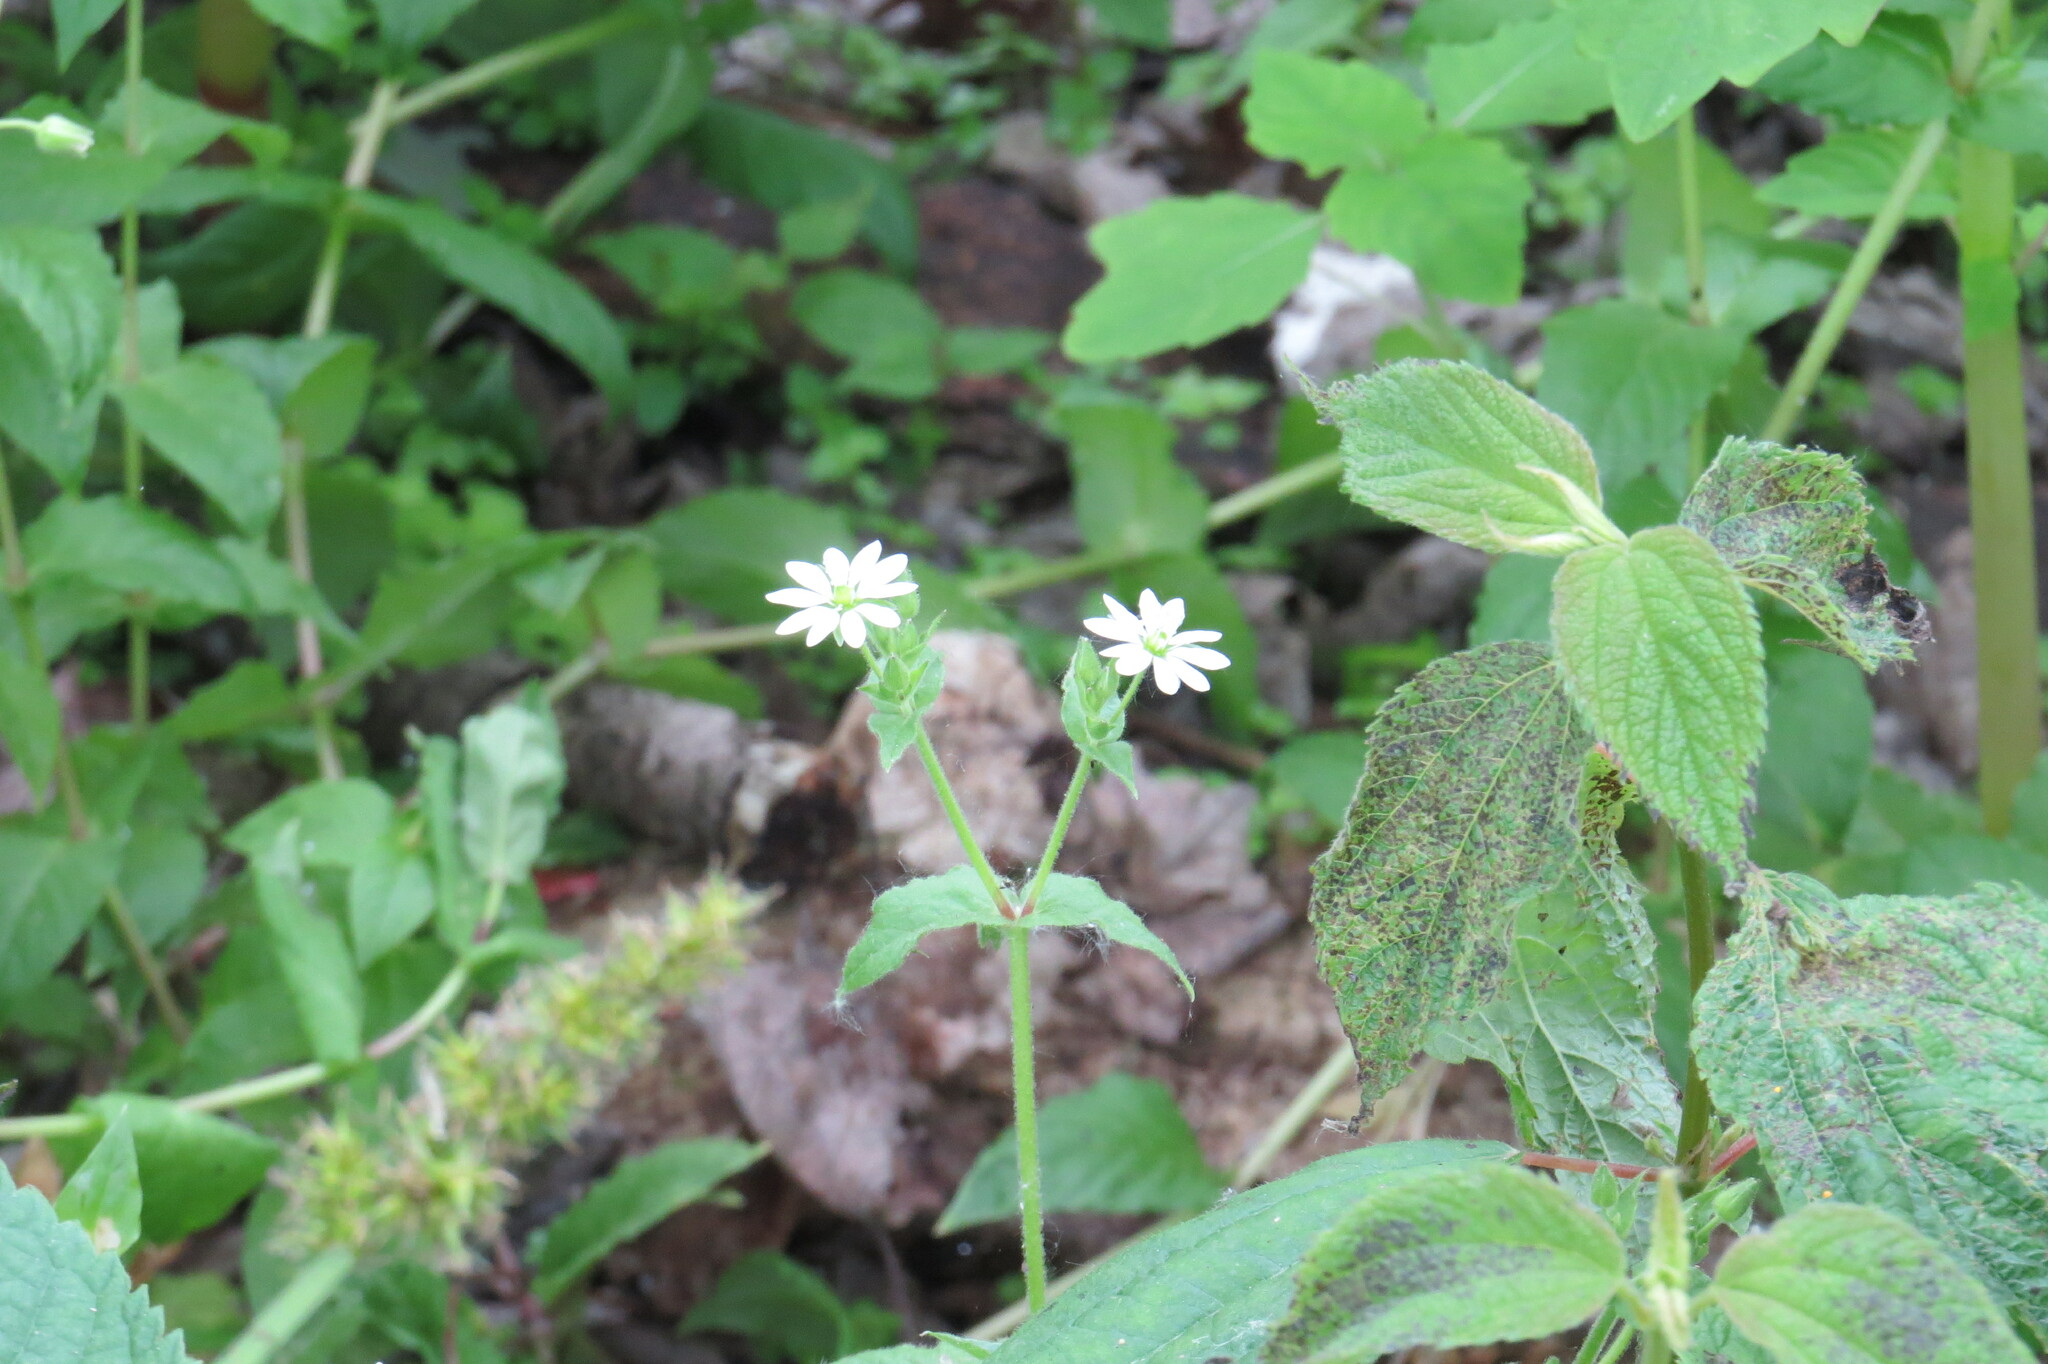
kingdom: Plantae
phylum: Tracheophyta
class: Magnoliopsida
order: Caryophyllales
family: Caryophyllaceae
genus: Stellaria
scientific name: Stellaria aquatica
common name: Water chickweed
